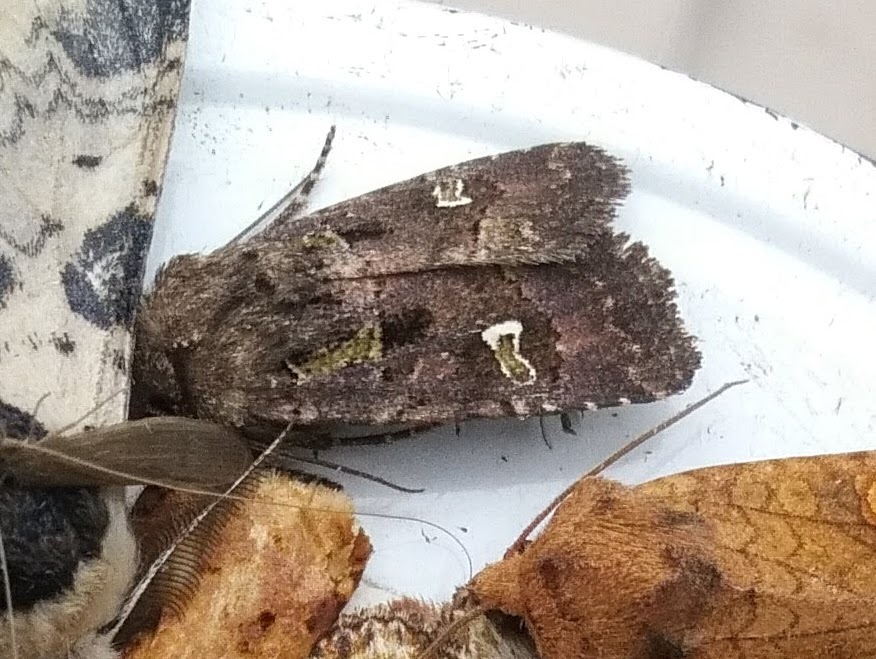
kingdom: Animalia
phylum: Arthropoda
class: Insecta
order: Lepidoptera
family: Noctuidae
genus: Lacinipolia
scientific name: Lacinipolia renigera
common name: Kidney-spotted minor
